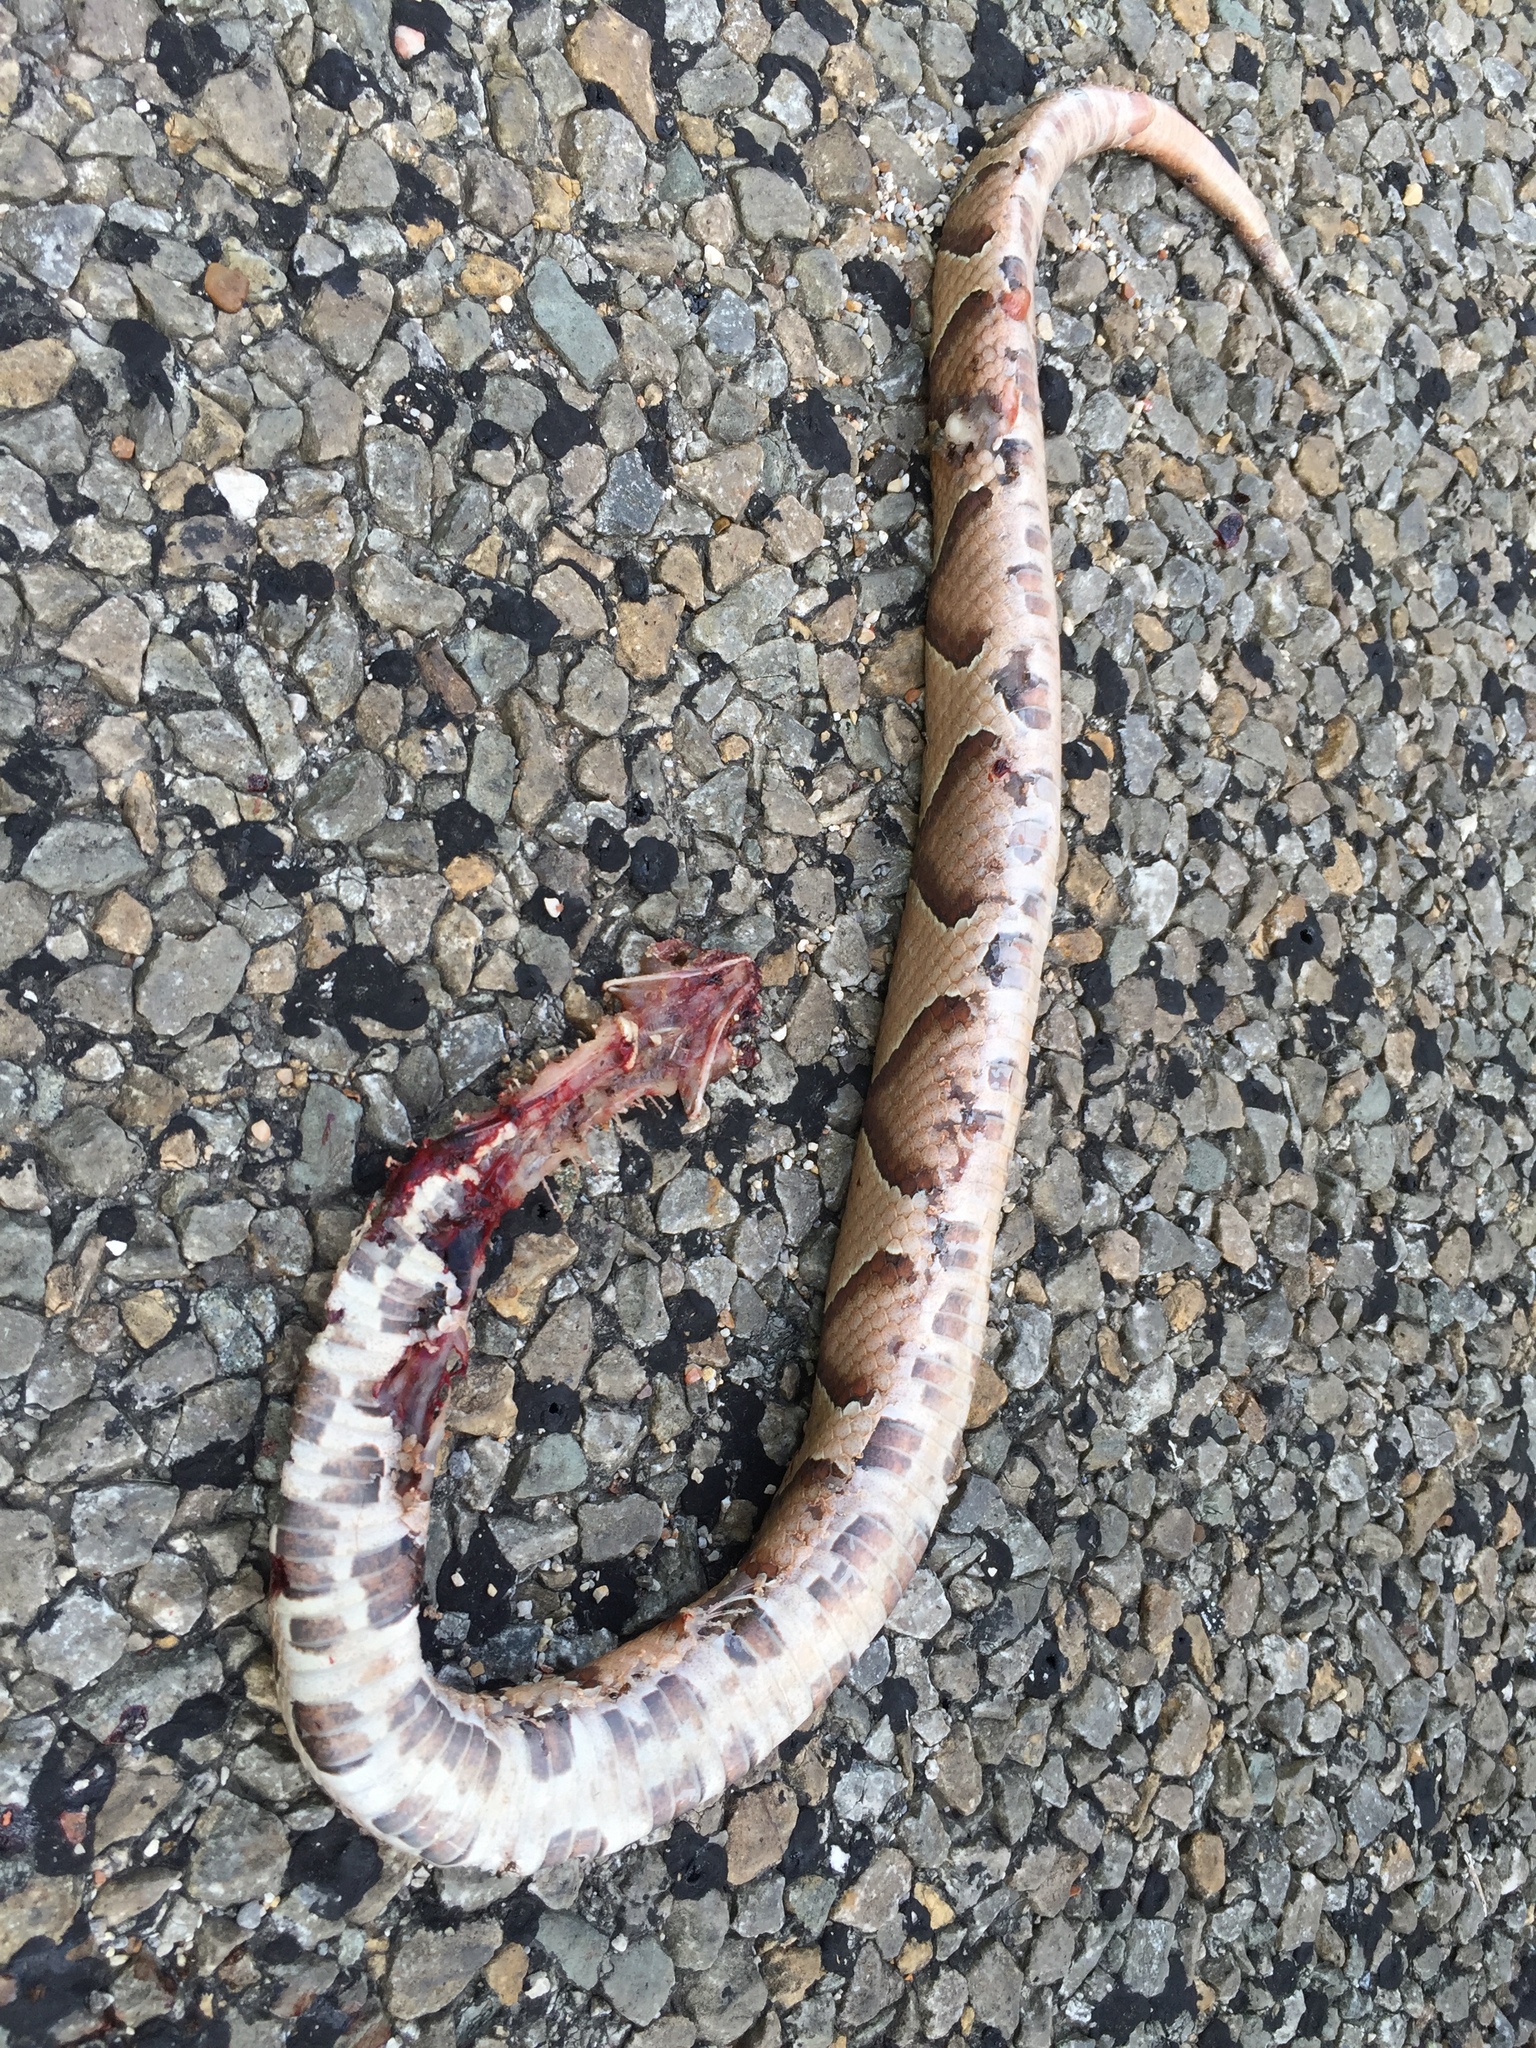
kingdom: Animalia
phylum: Chordata
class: Squamata
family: Viperidae
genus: Agkistrodon
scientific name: Agkistrodon
